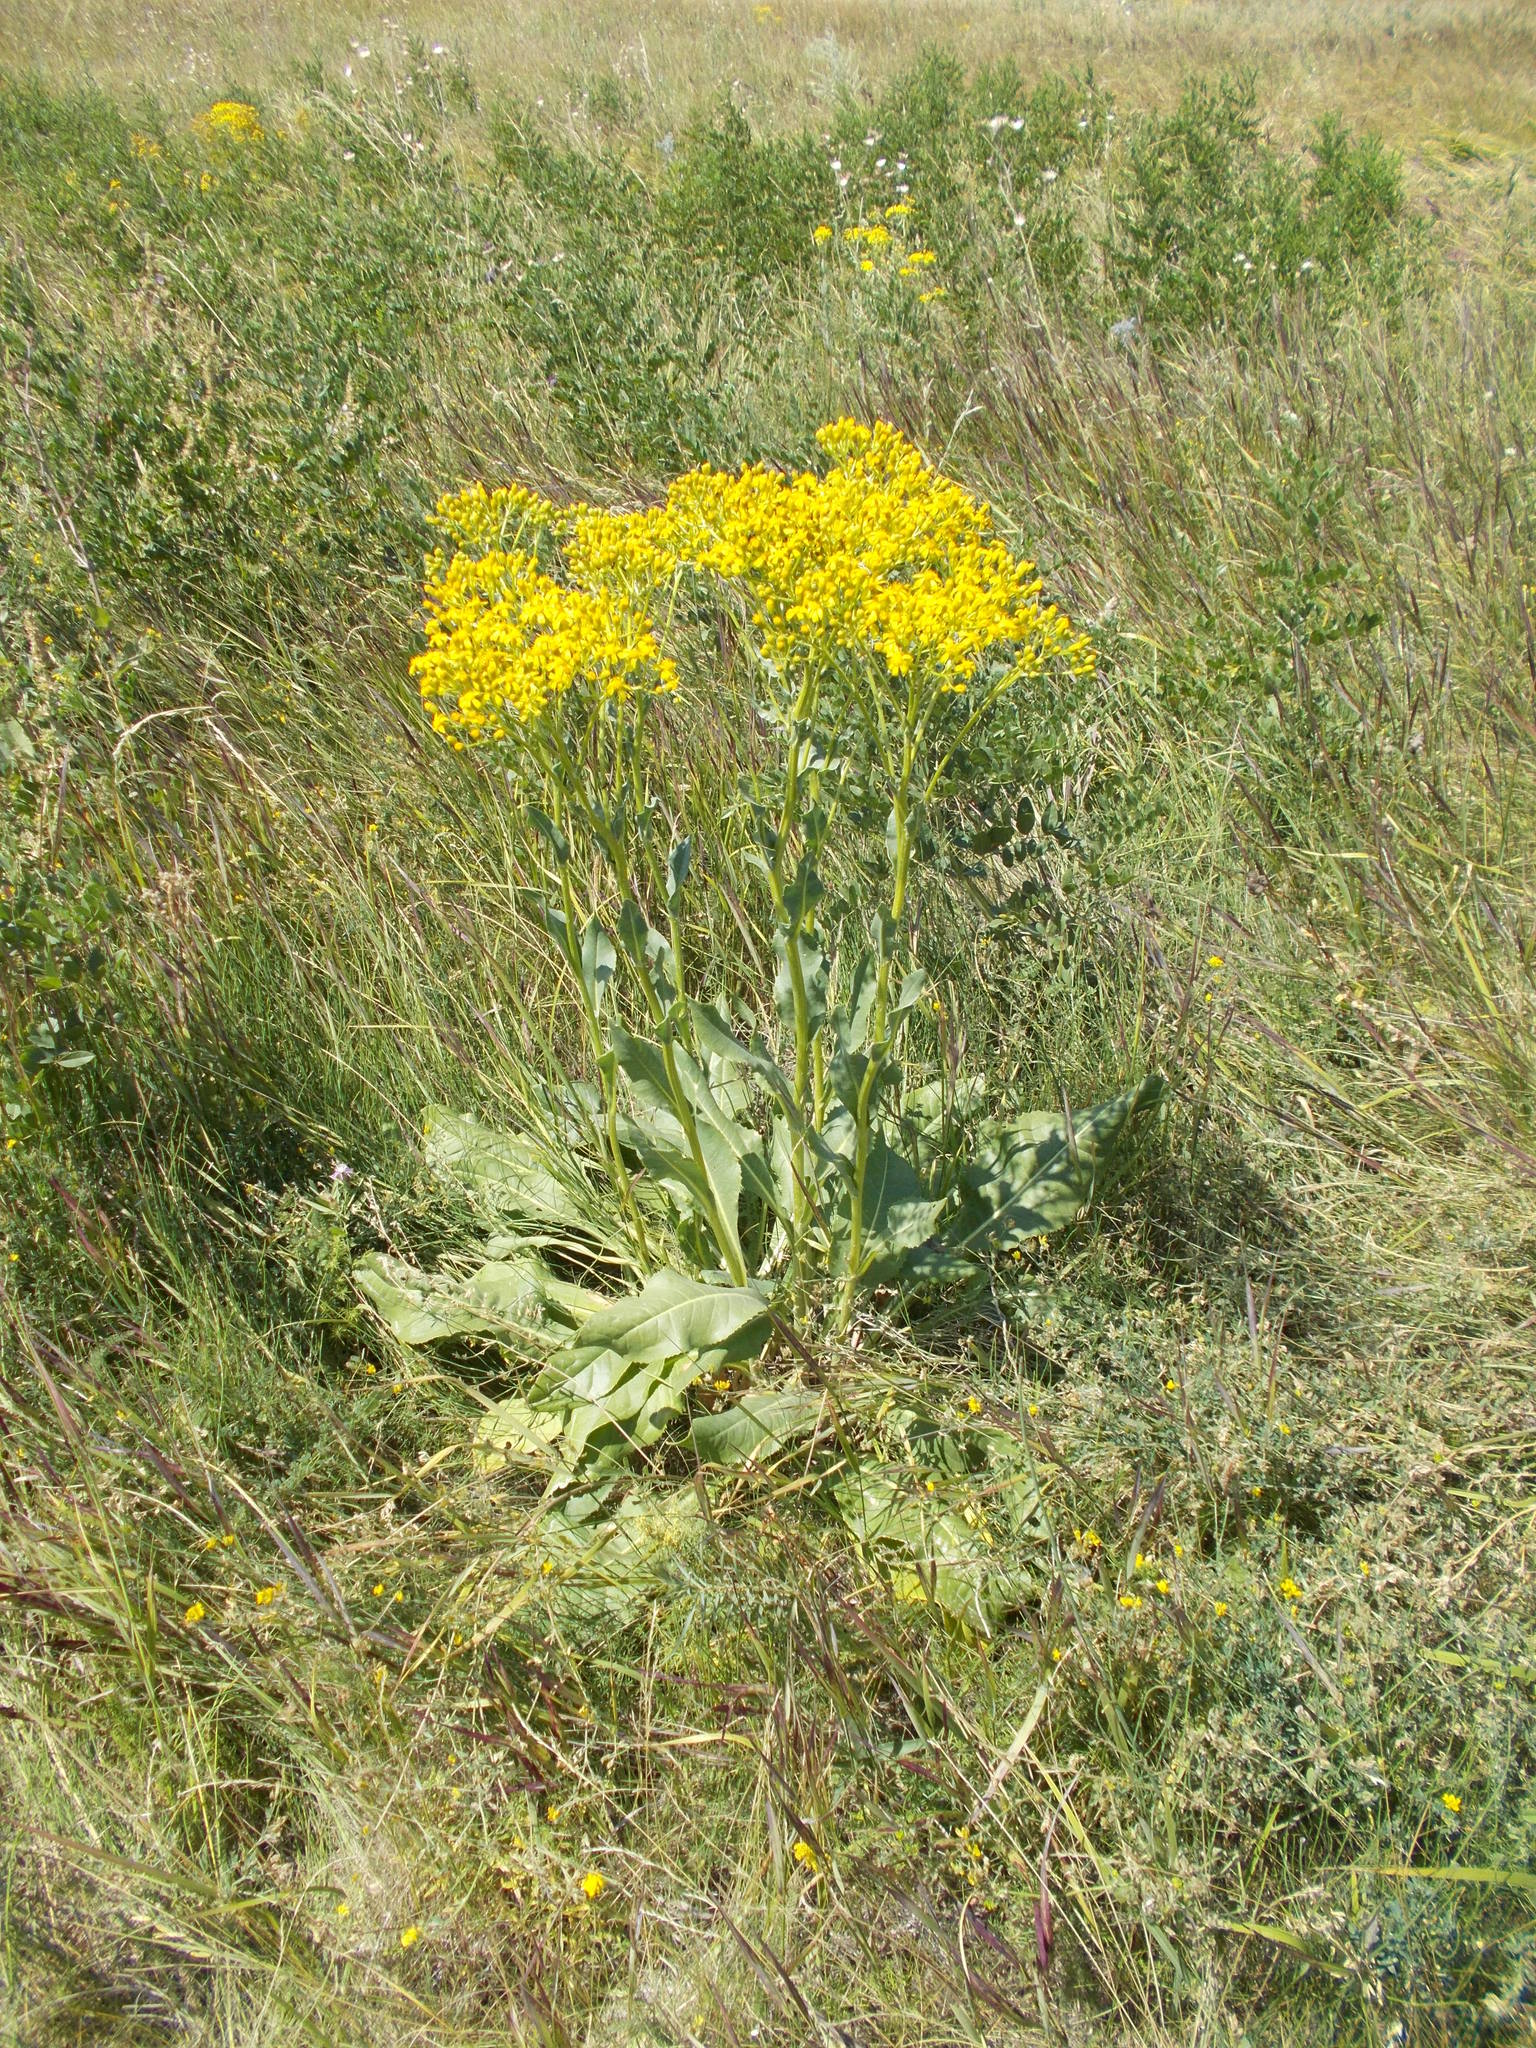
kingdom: Plantae
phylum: Tracheophyta
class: Magnoliopsida
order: Asterales
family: Asteraceae
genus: Senecio
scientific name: Senecio doria
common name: Golden ragwort
